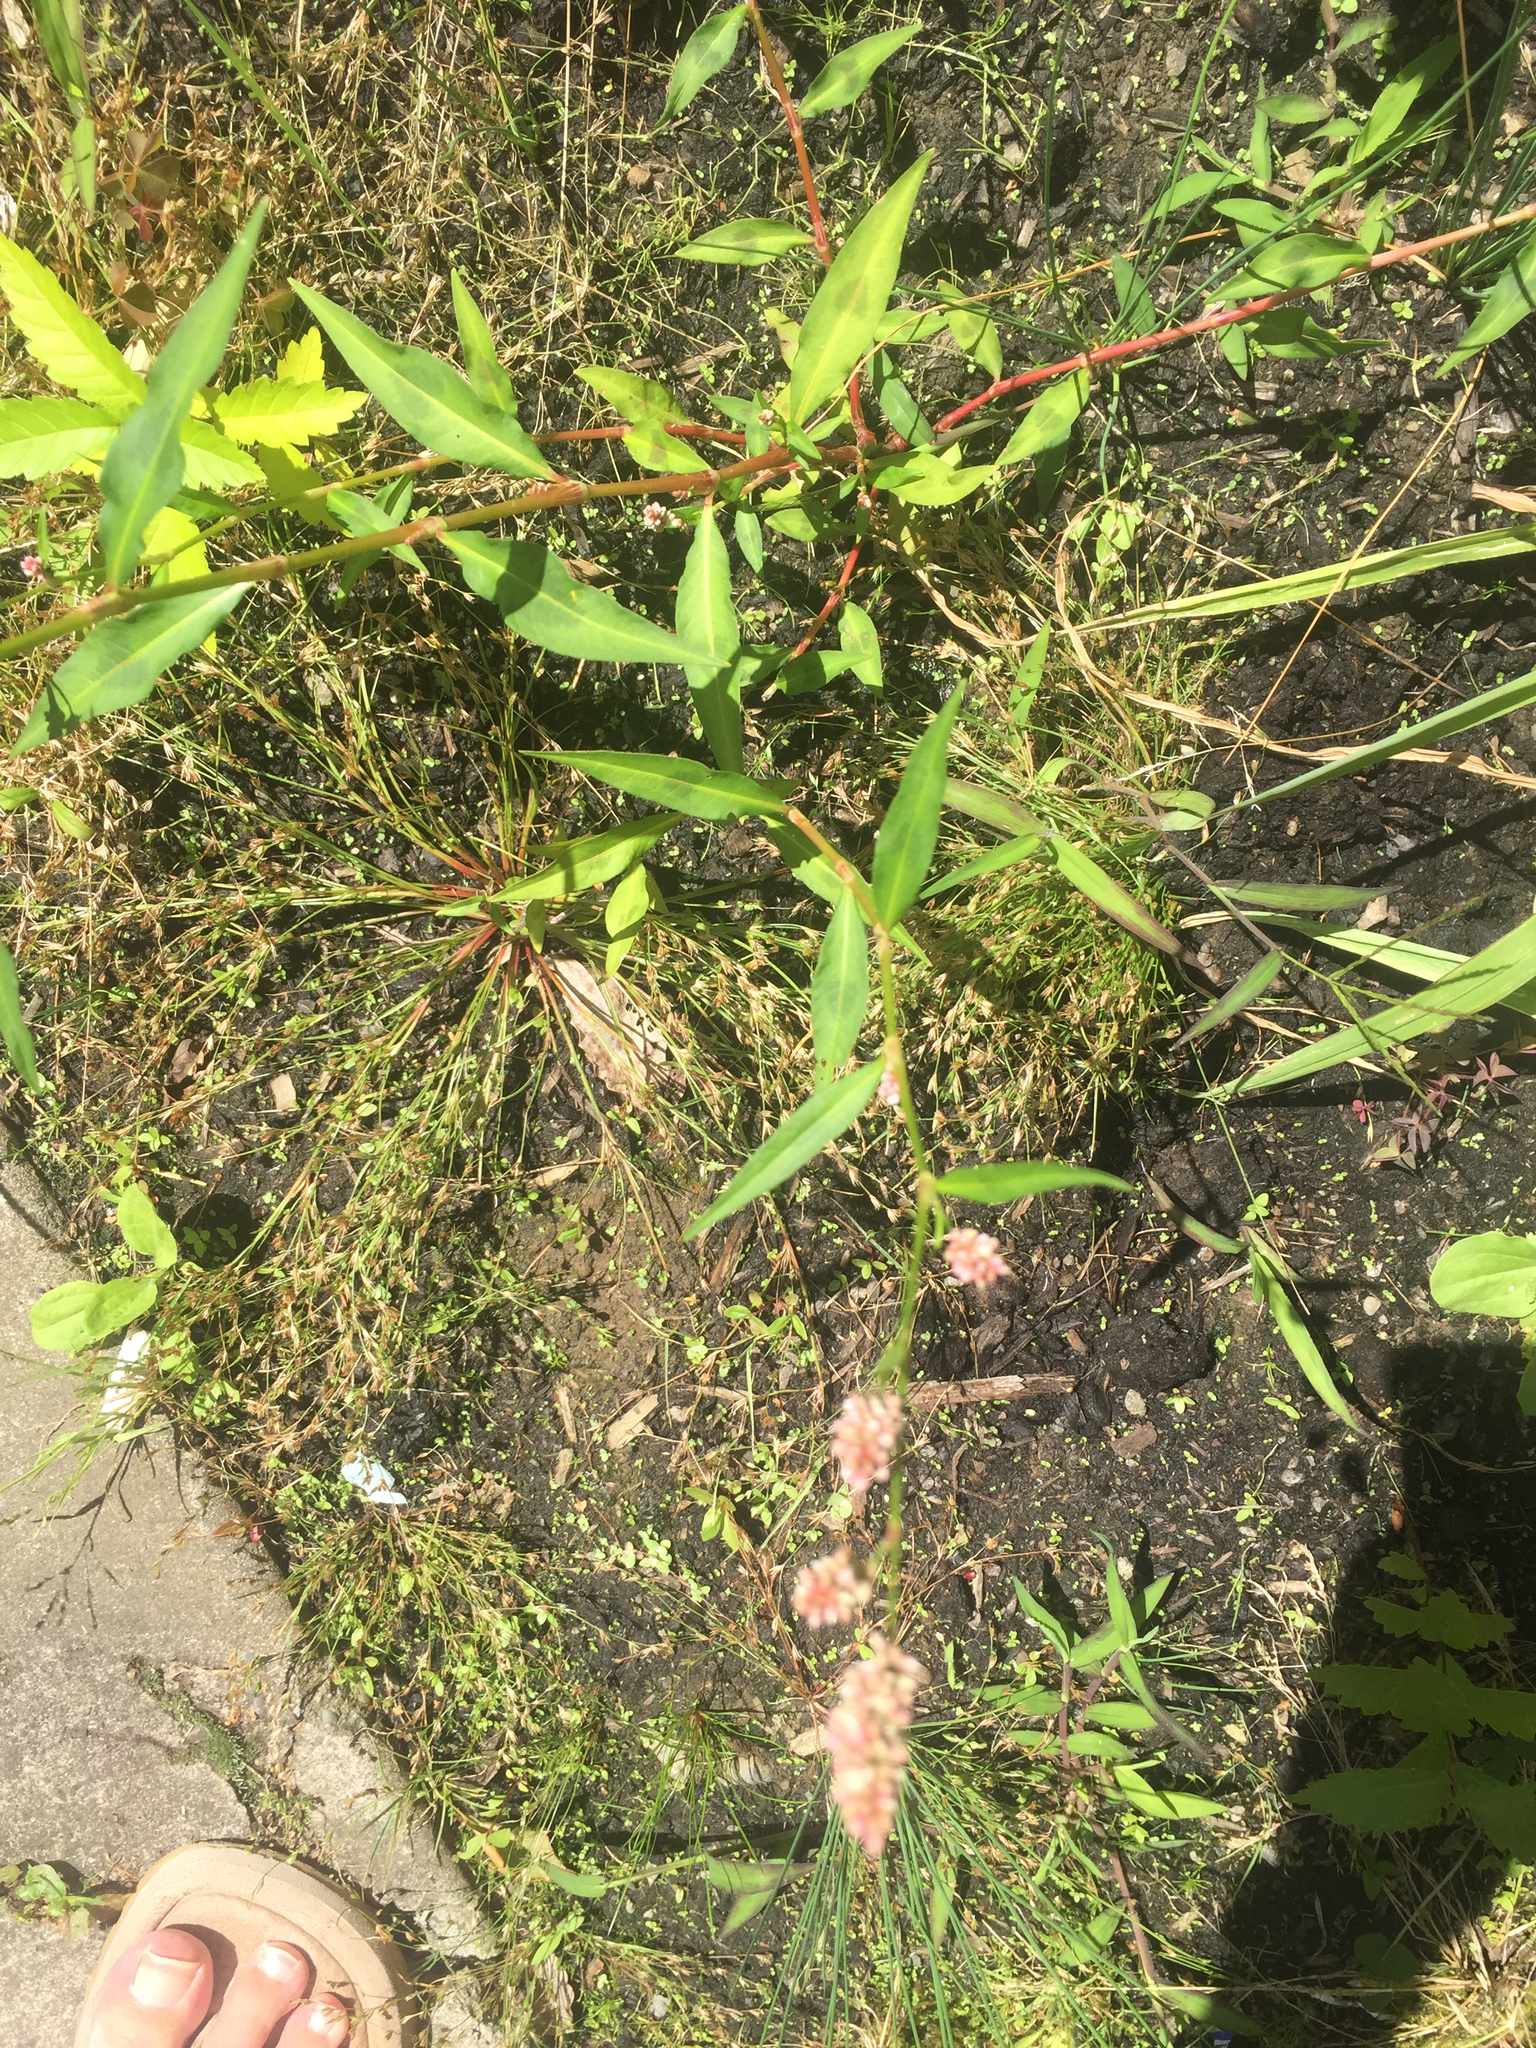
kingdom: Plantae
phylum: Tracheophyta
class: Magnoliopsida
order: Caryophyllales
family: Polygonaceae
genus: Persicaria
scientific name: Persicaria maculosa
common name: Redshank
